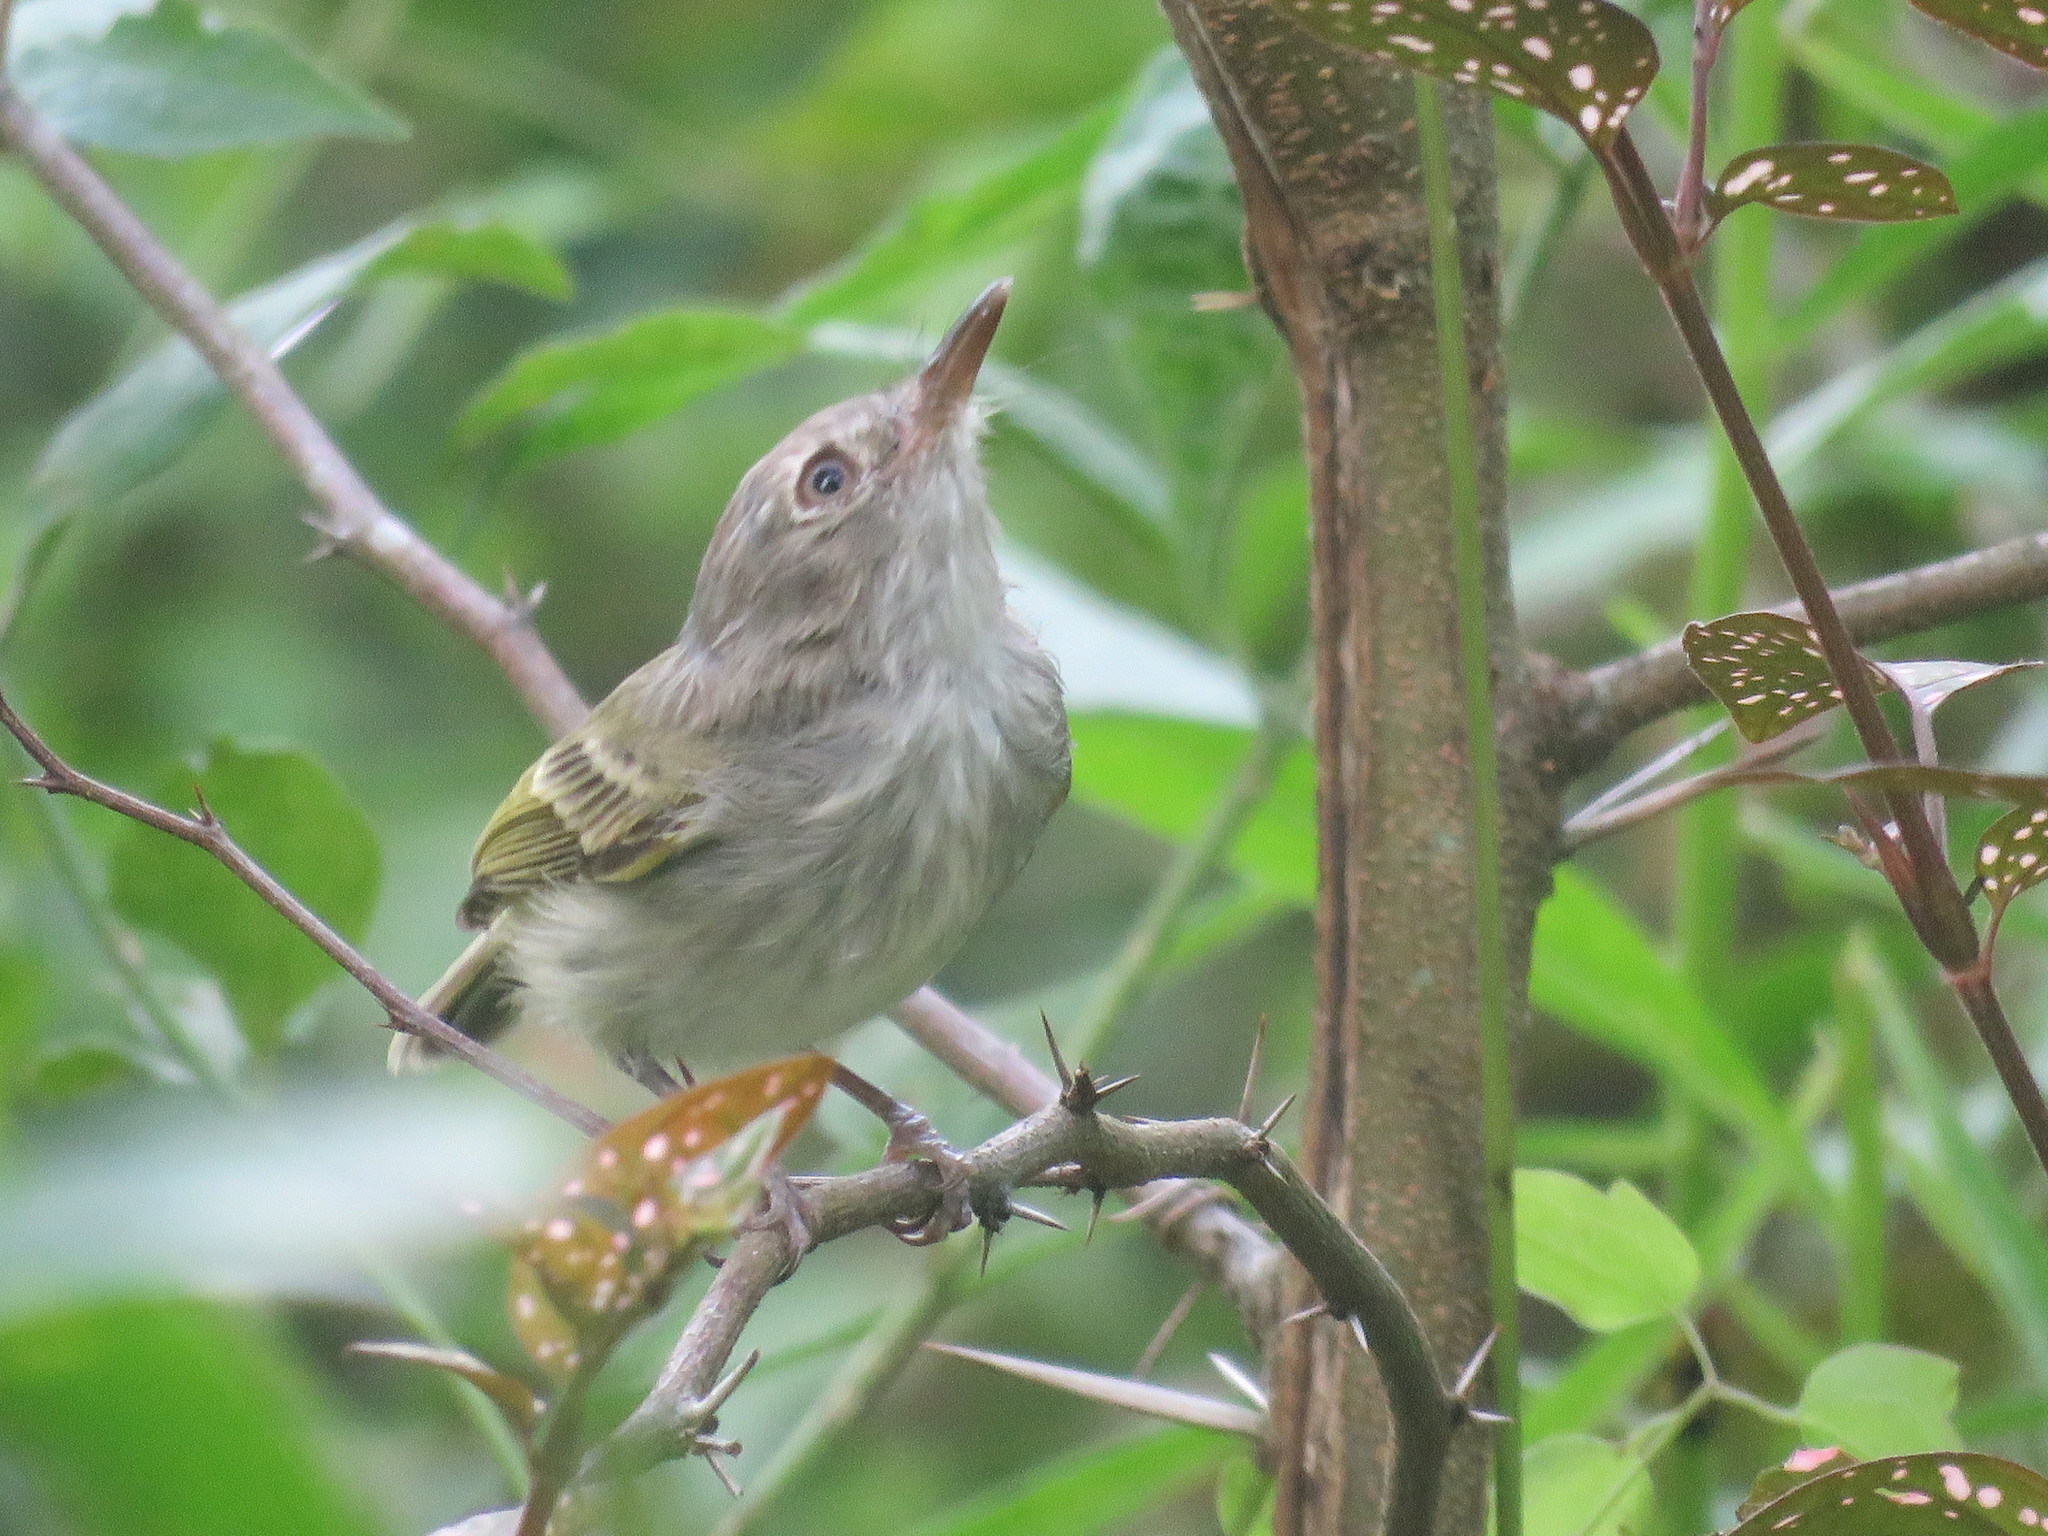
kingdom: Animalia
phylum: Chordata
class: Aves
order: Passeriformes
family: Tyrannidae
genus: Hemitriccus
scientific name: Hemitriccus margaritaceiventer
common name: Pearly-vented tody-tyrant
